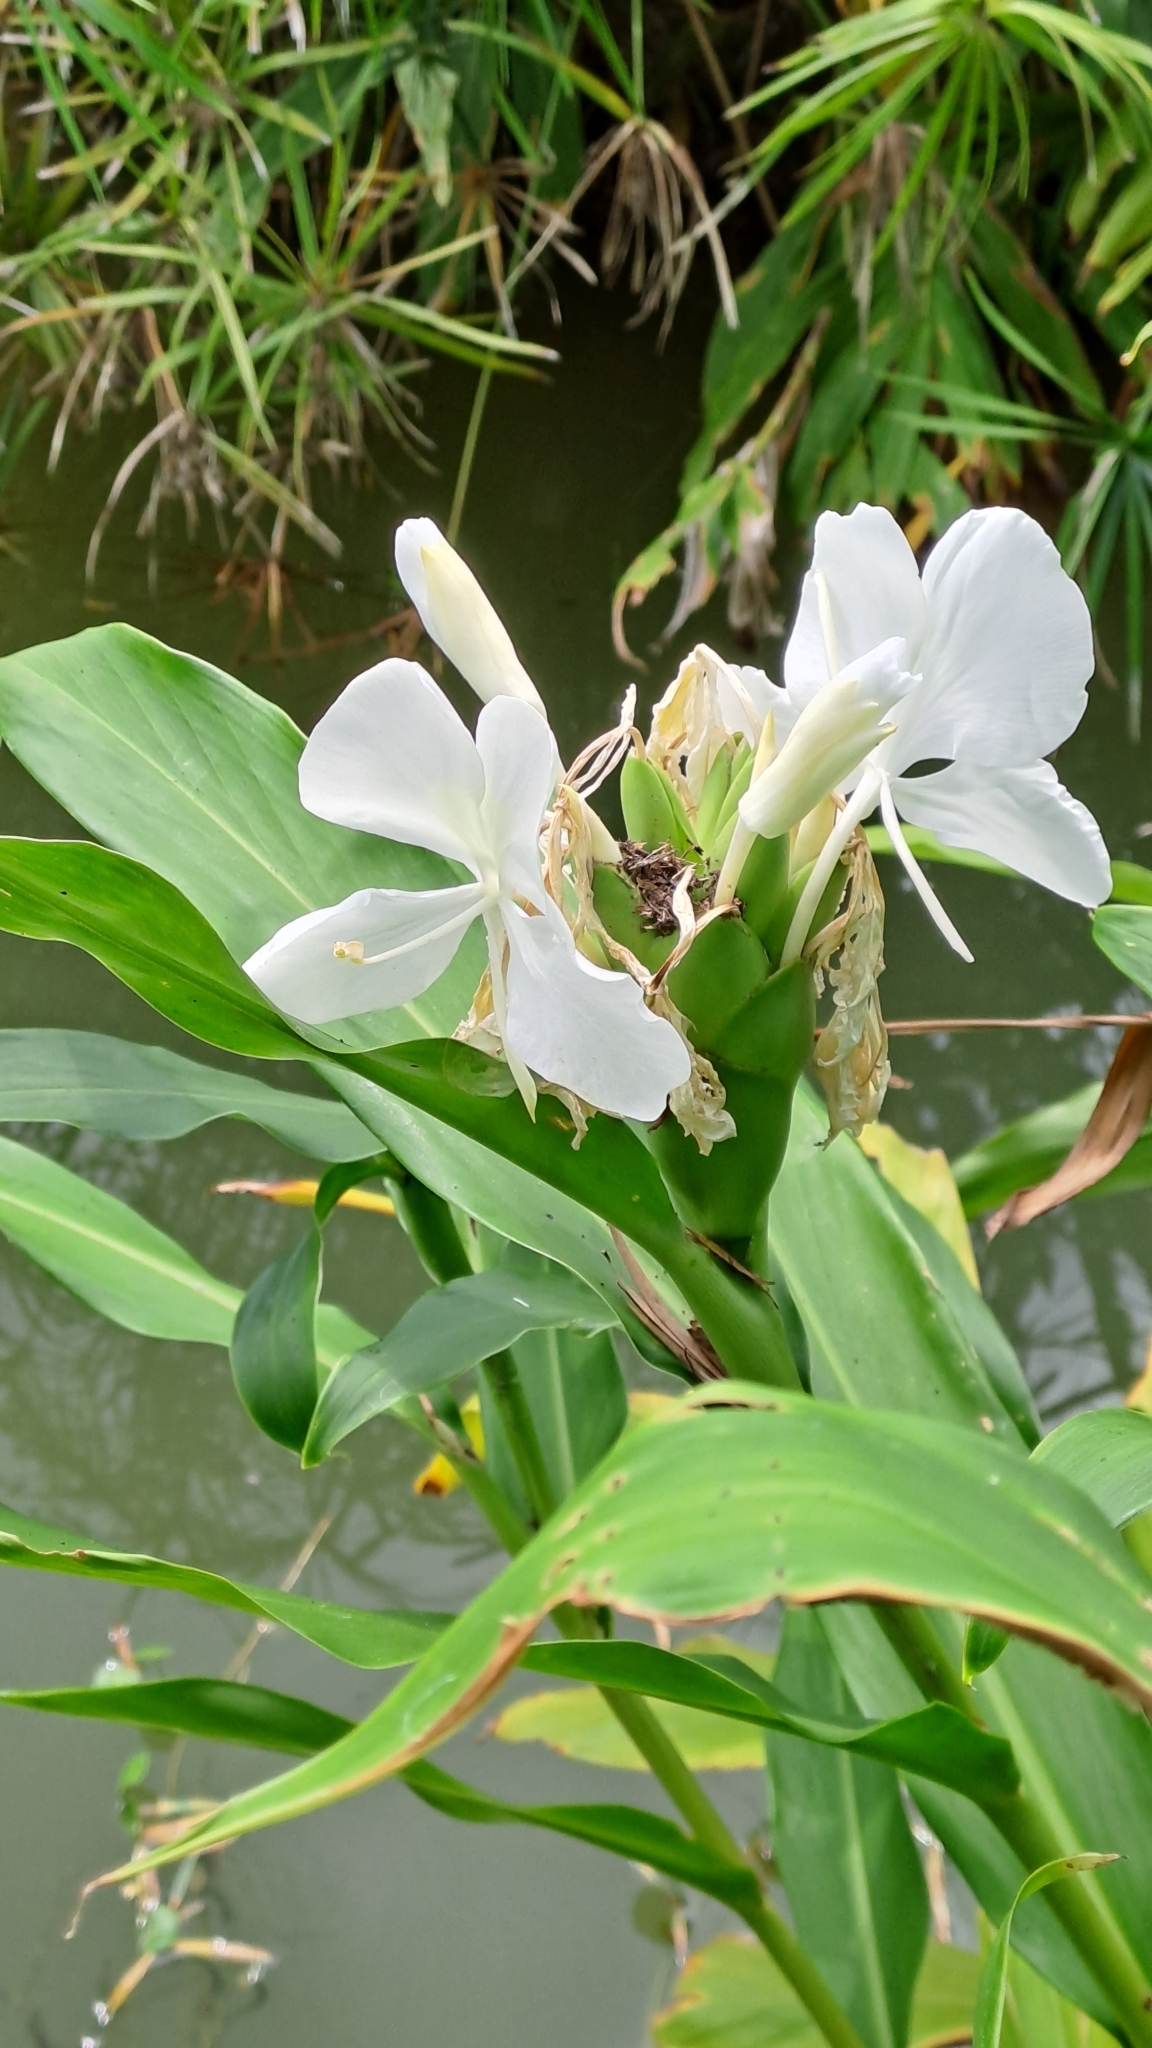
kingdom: Plantae
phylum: Tracheophyta
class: Liliopsida
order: Zingiberales
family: Zingiberaceae
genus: Hedychium
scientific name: Hedychium coronarium
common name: White garland-lily
